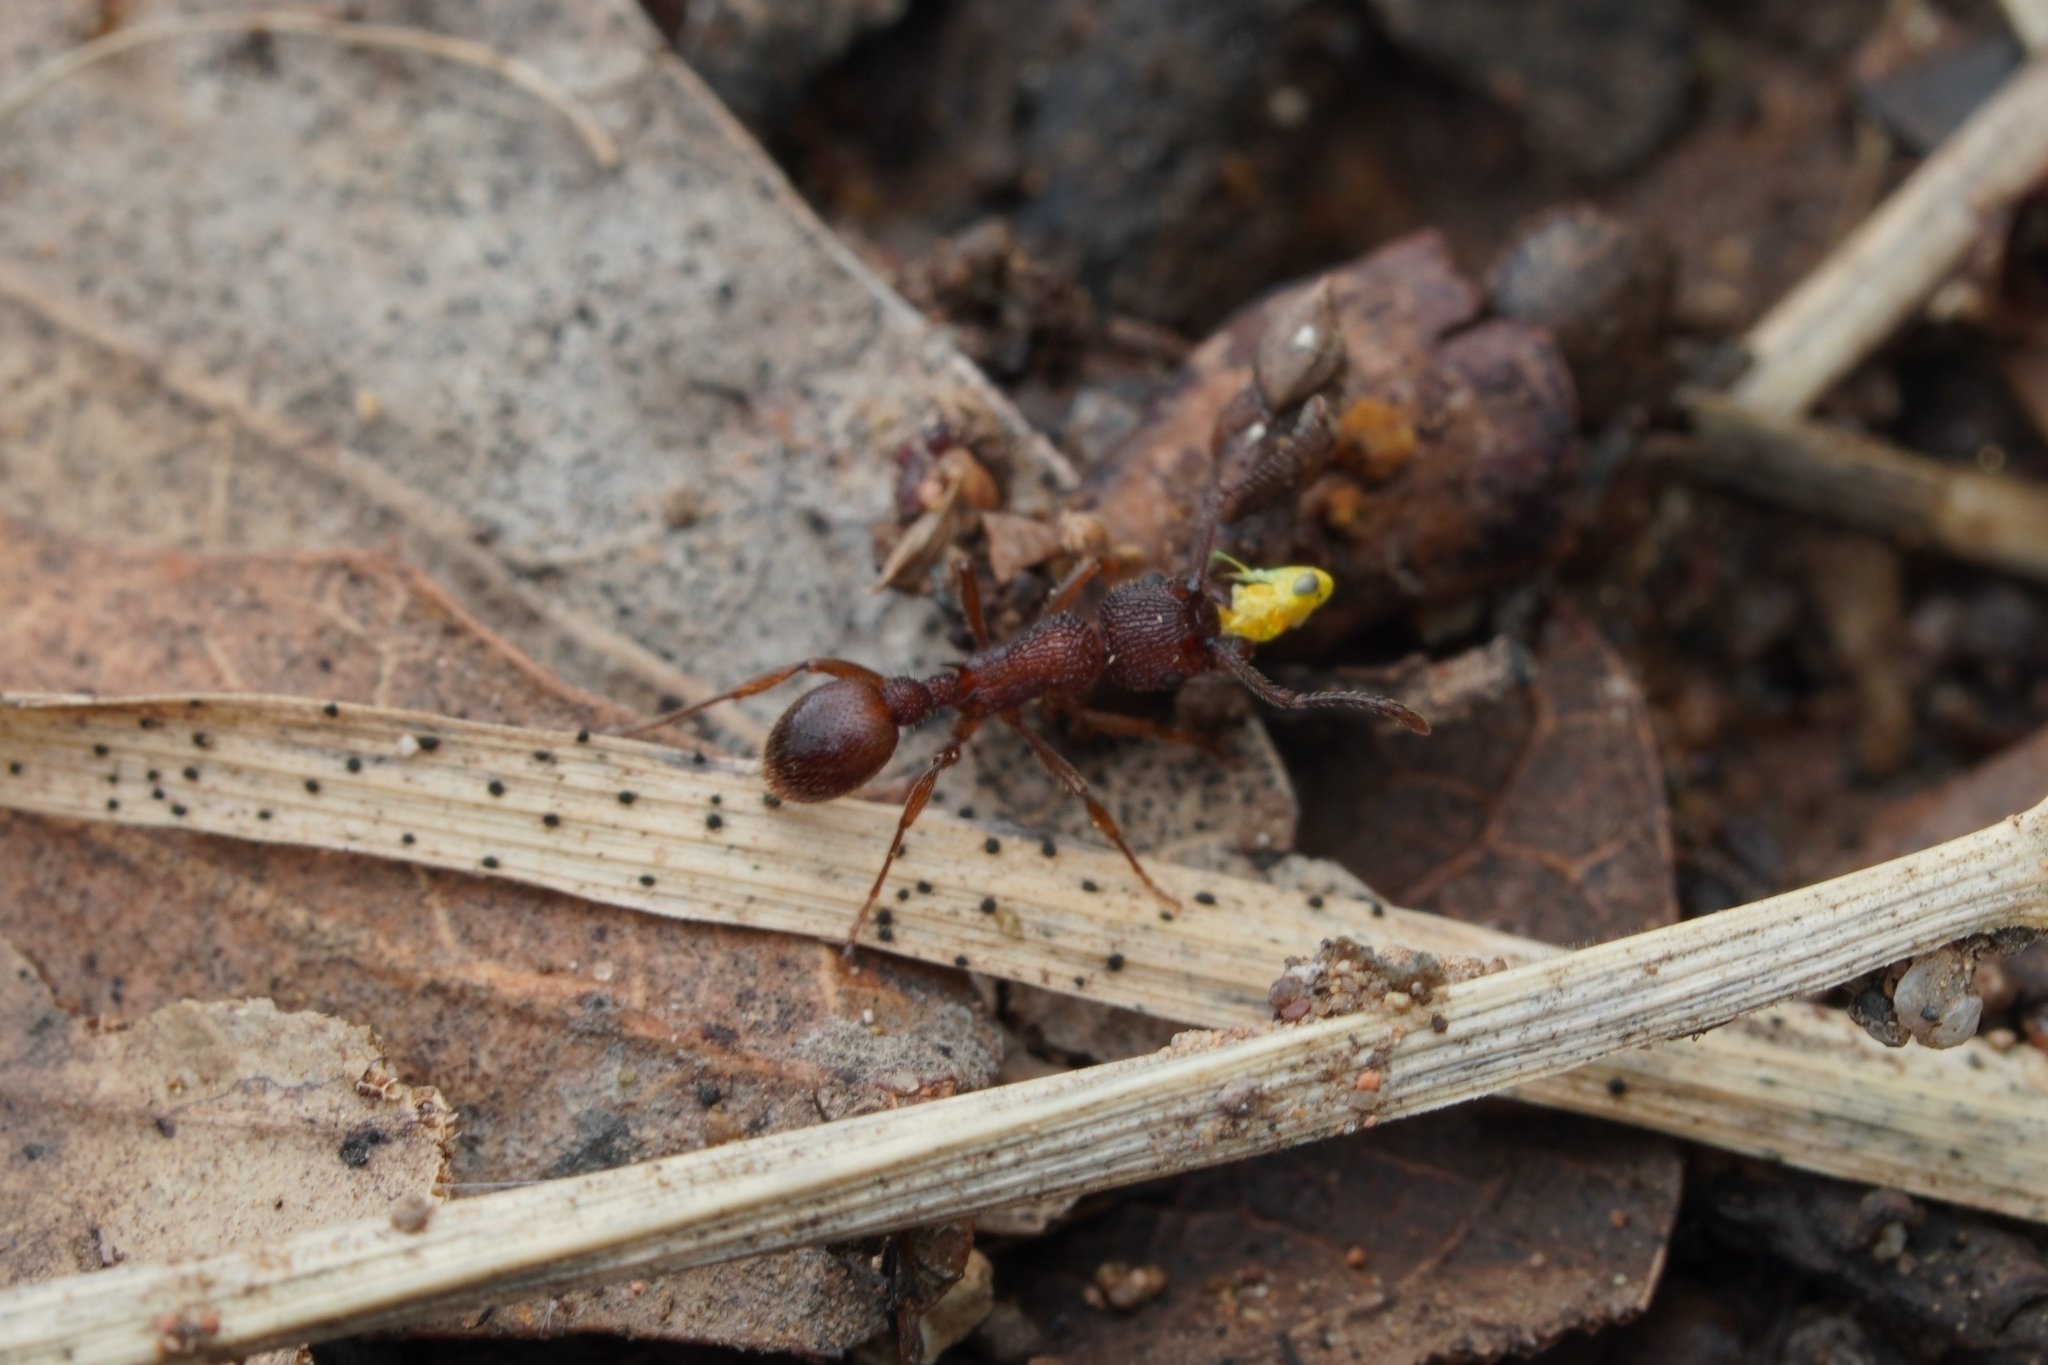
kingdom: Animalia
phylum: Arthropoda
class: Insecta
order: Hymenoptera
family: Formicidae
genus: Myrmica
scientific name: Myrmica striolagaster
